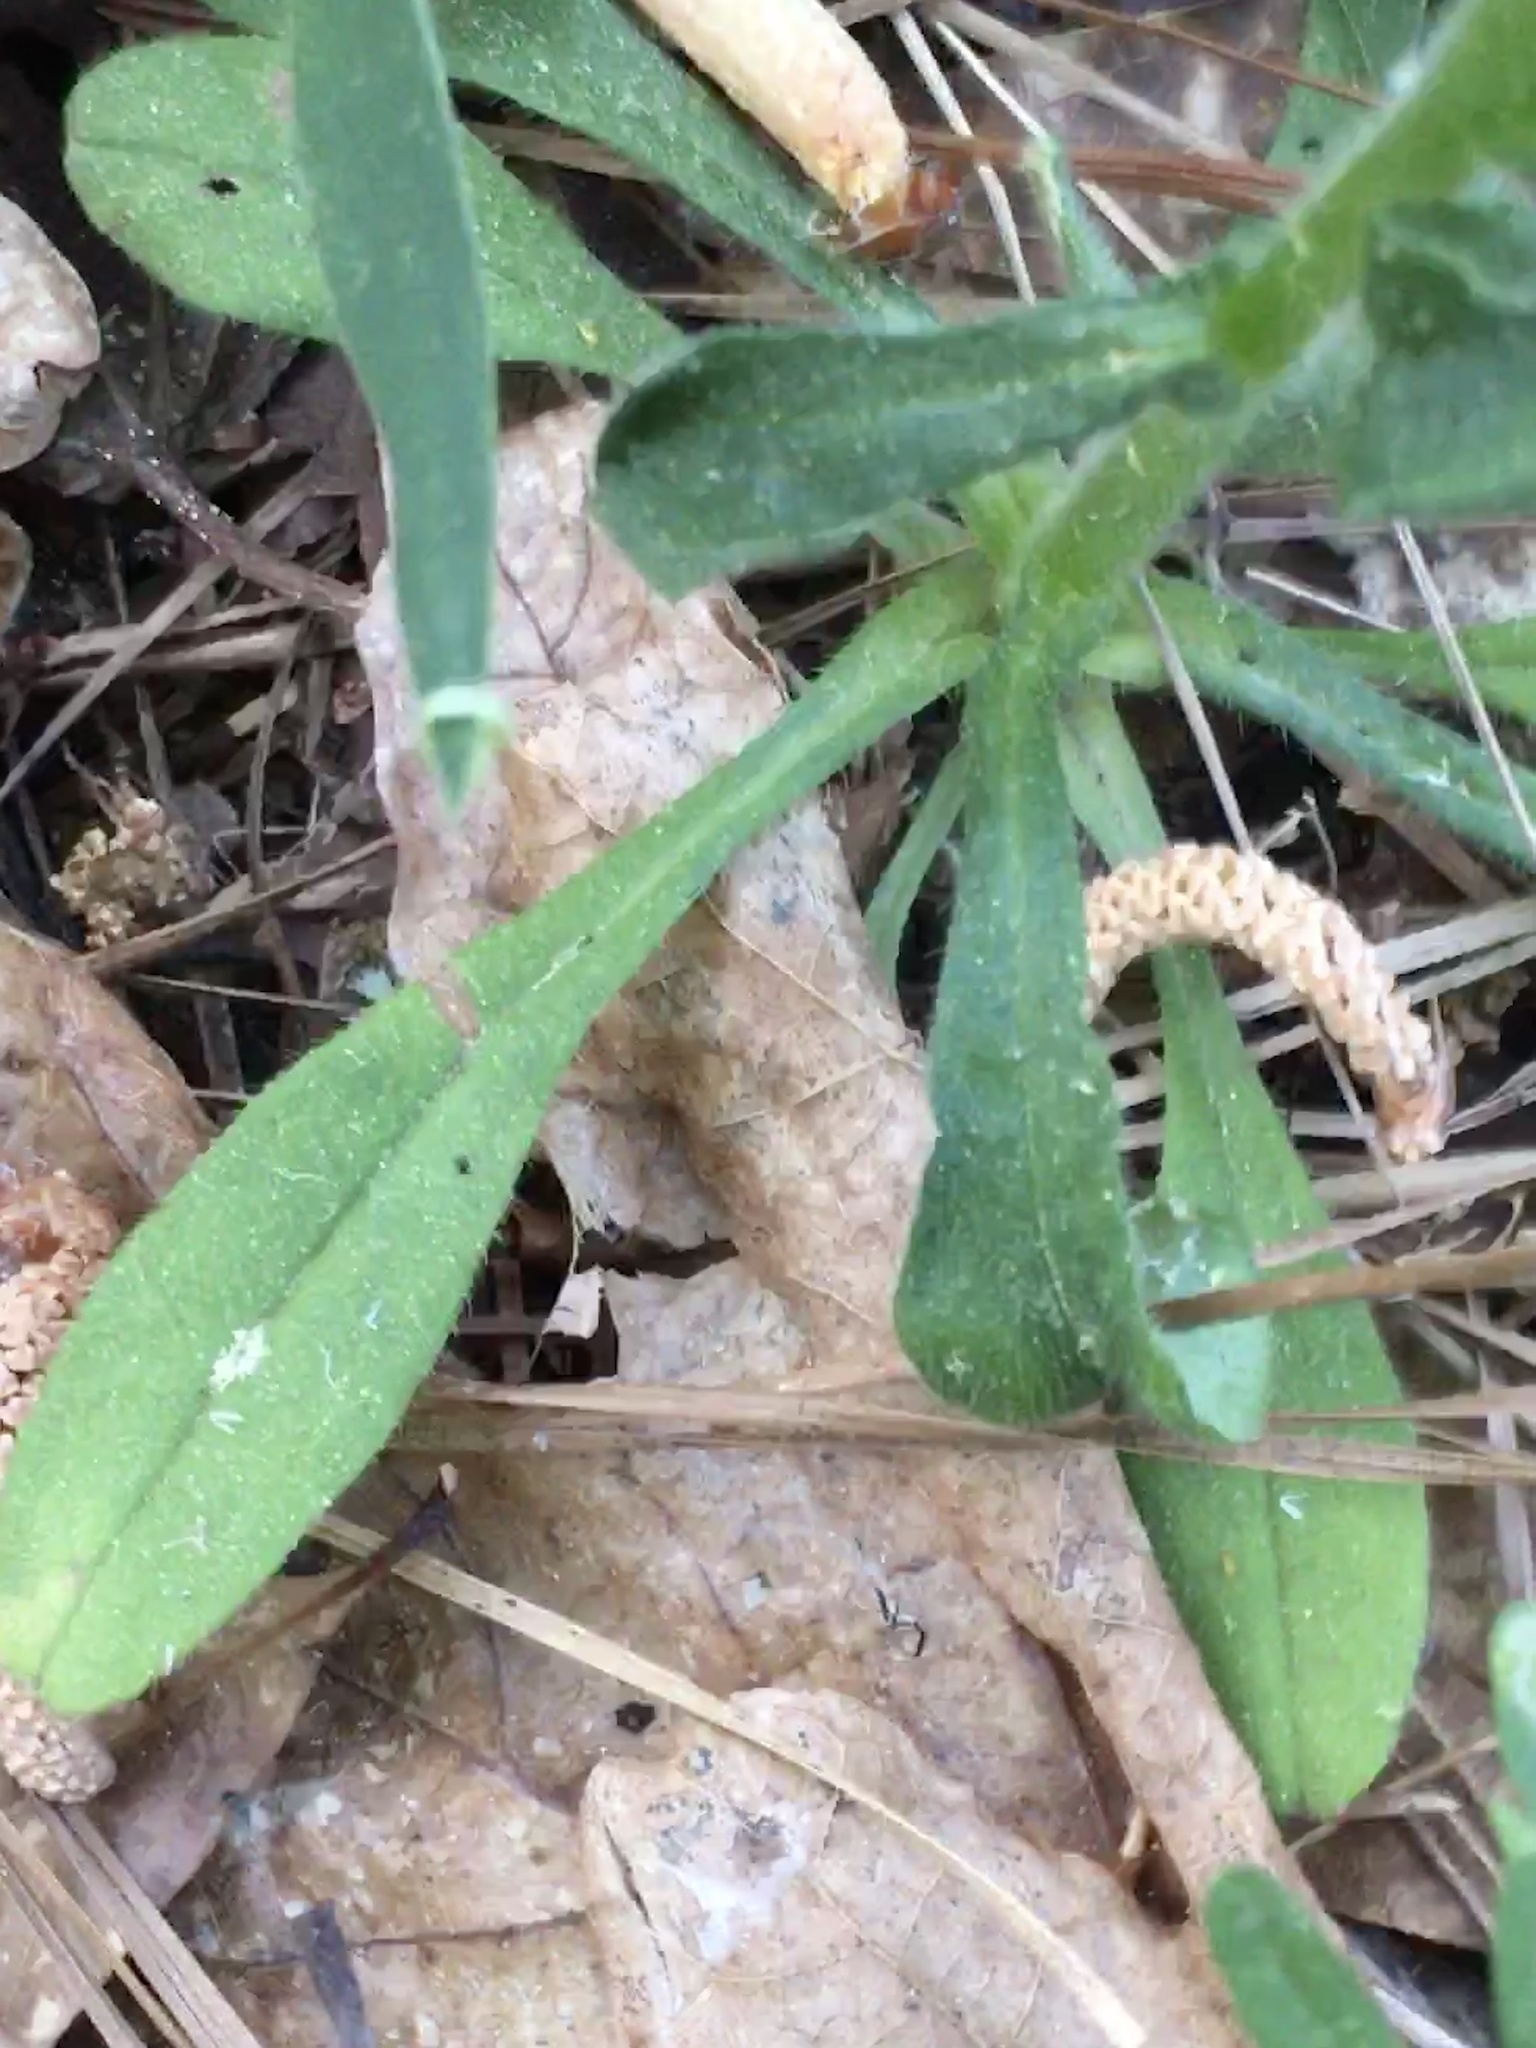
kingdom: Plantae
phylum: Tracheophyta
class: Magnoliopsida
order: Boraginales
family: Boraginaceae
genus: Myosotis
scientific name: Myosotis macrosperma
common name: Large-seed forget-me-not
